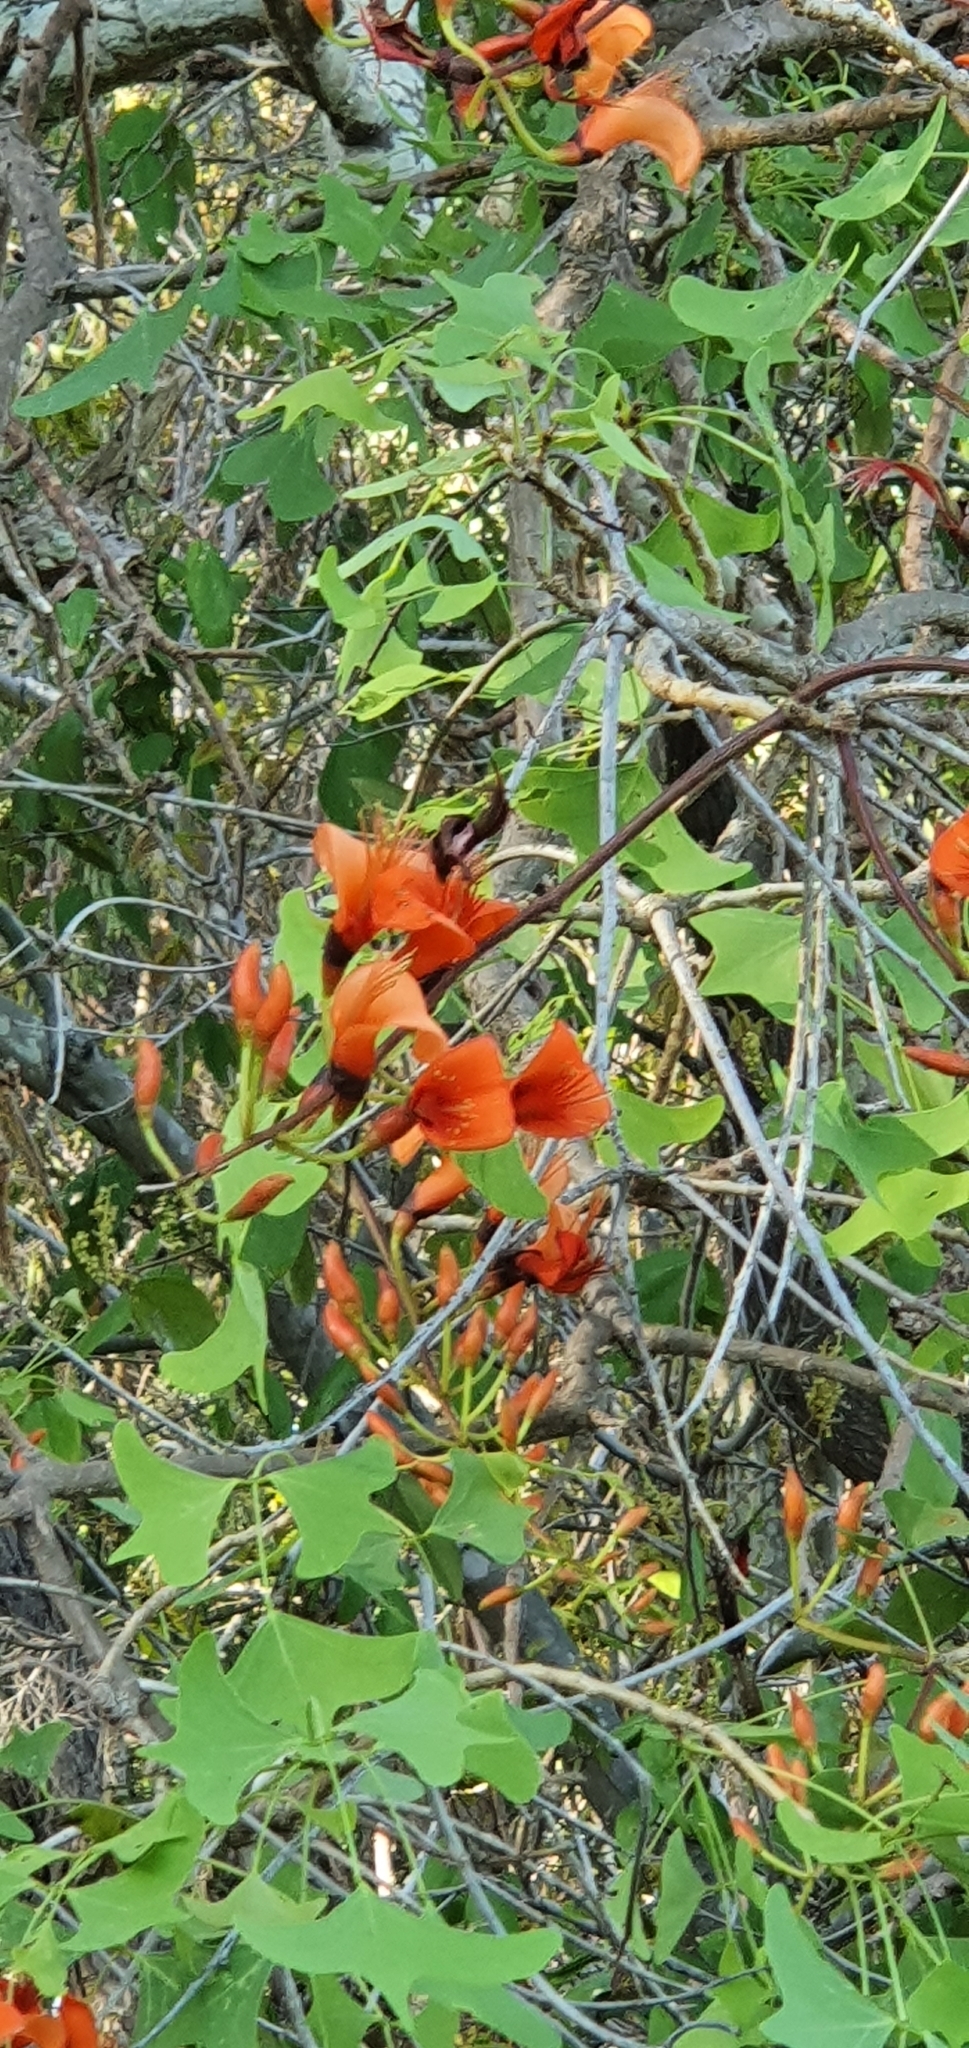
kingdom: Plantae
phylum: Tracheophyta
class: Magnoliopsida
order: Fabales
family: Fabaceae
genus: Erythrina
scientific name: Erythrina vespertilio
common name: Bat-wing coral tree
